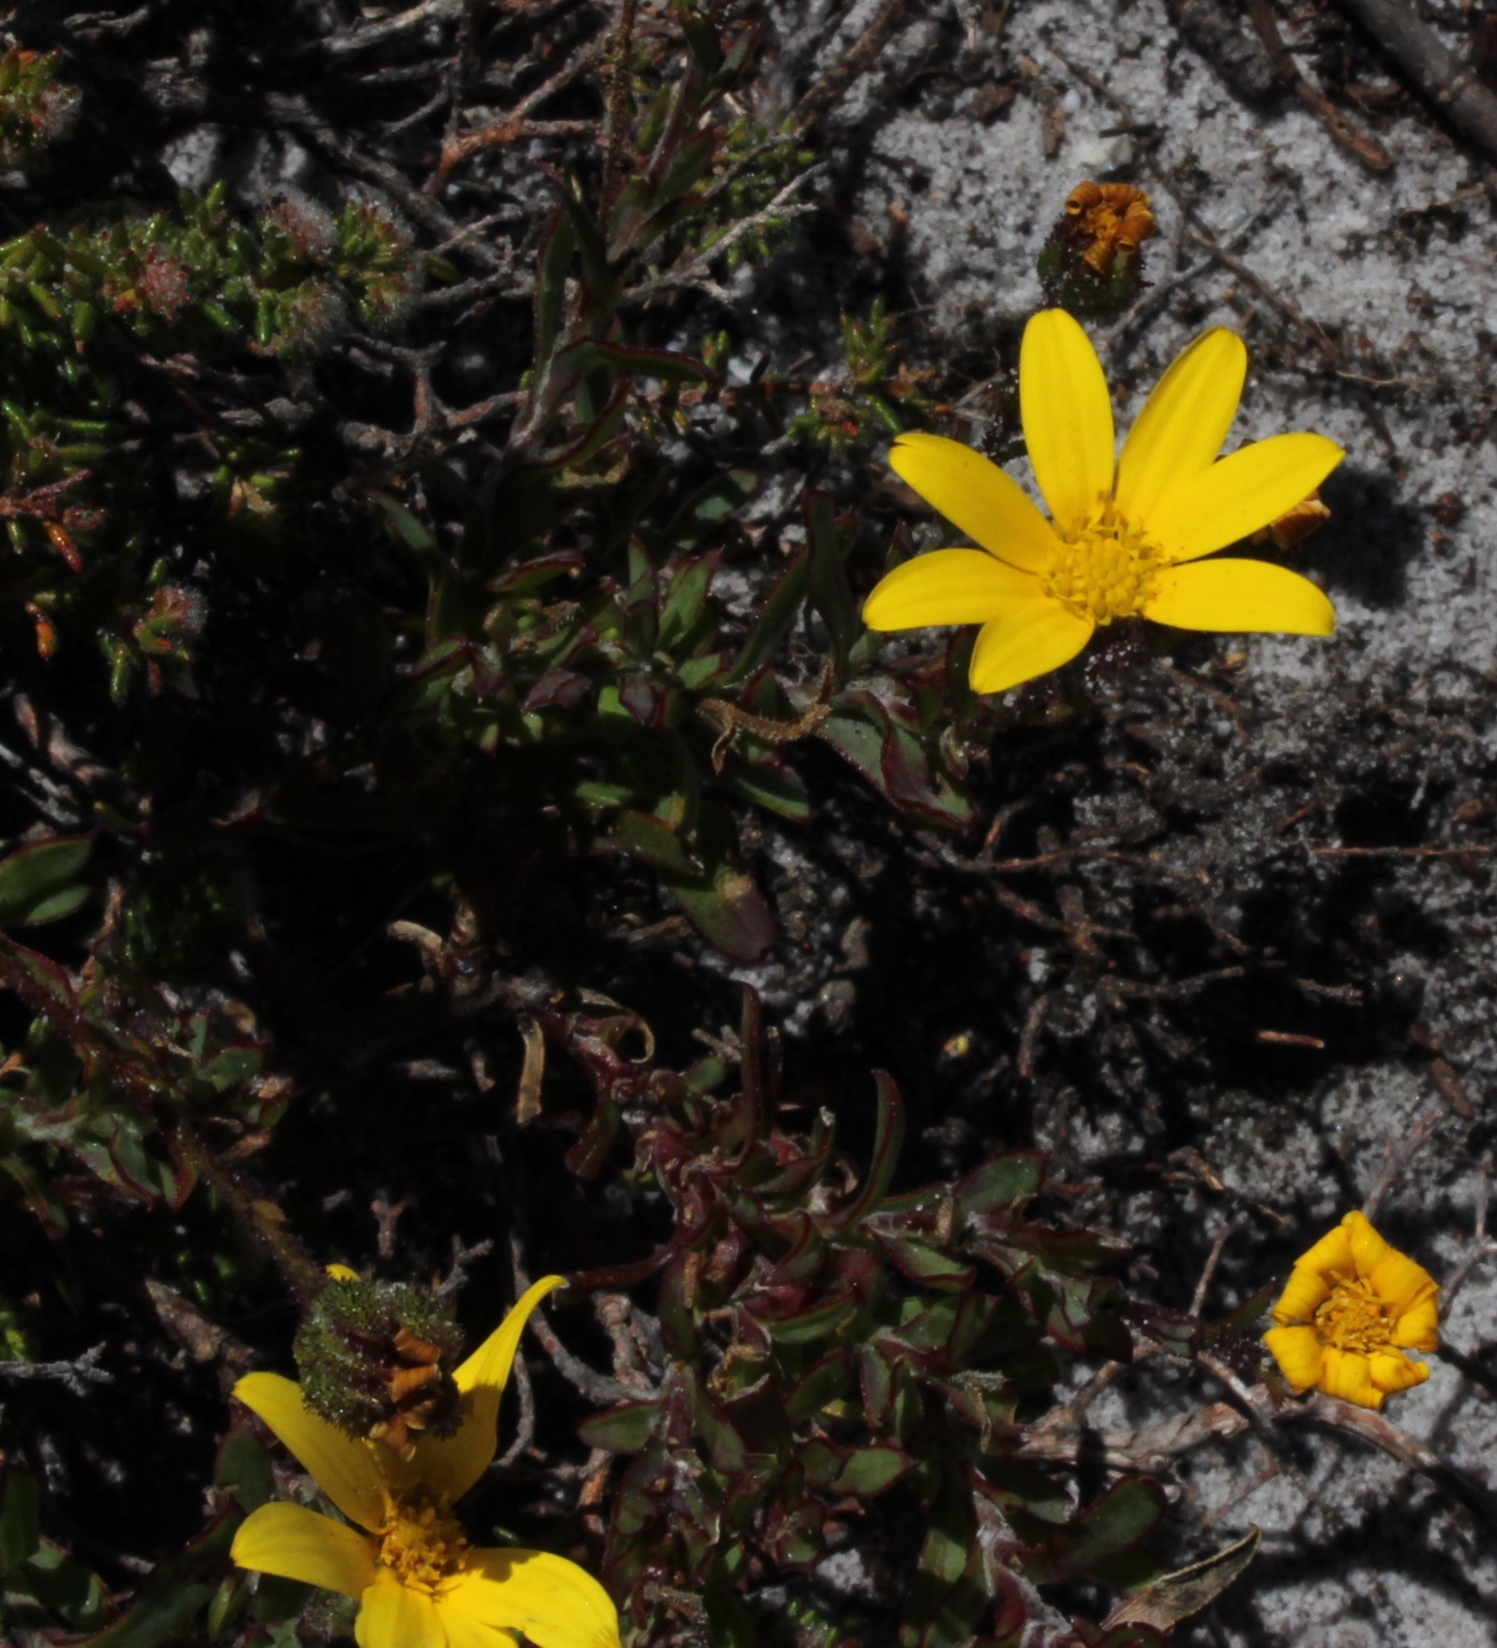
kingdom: Plantae
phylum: Tracheophyta
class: Magnoliopsida
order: Asterales
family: Asteraceae
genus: Osteospermum
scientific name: Osteospermum polygaloides
